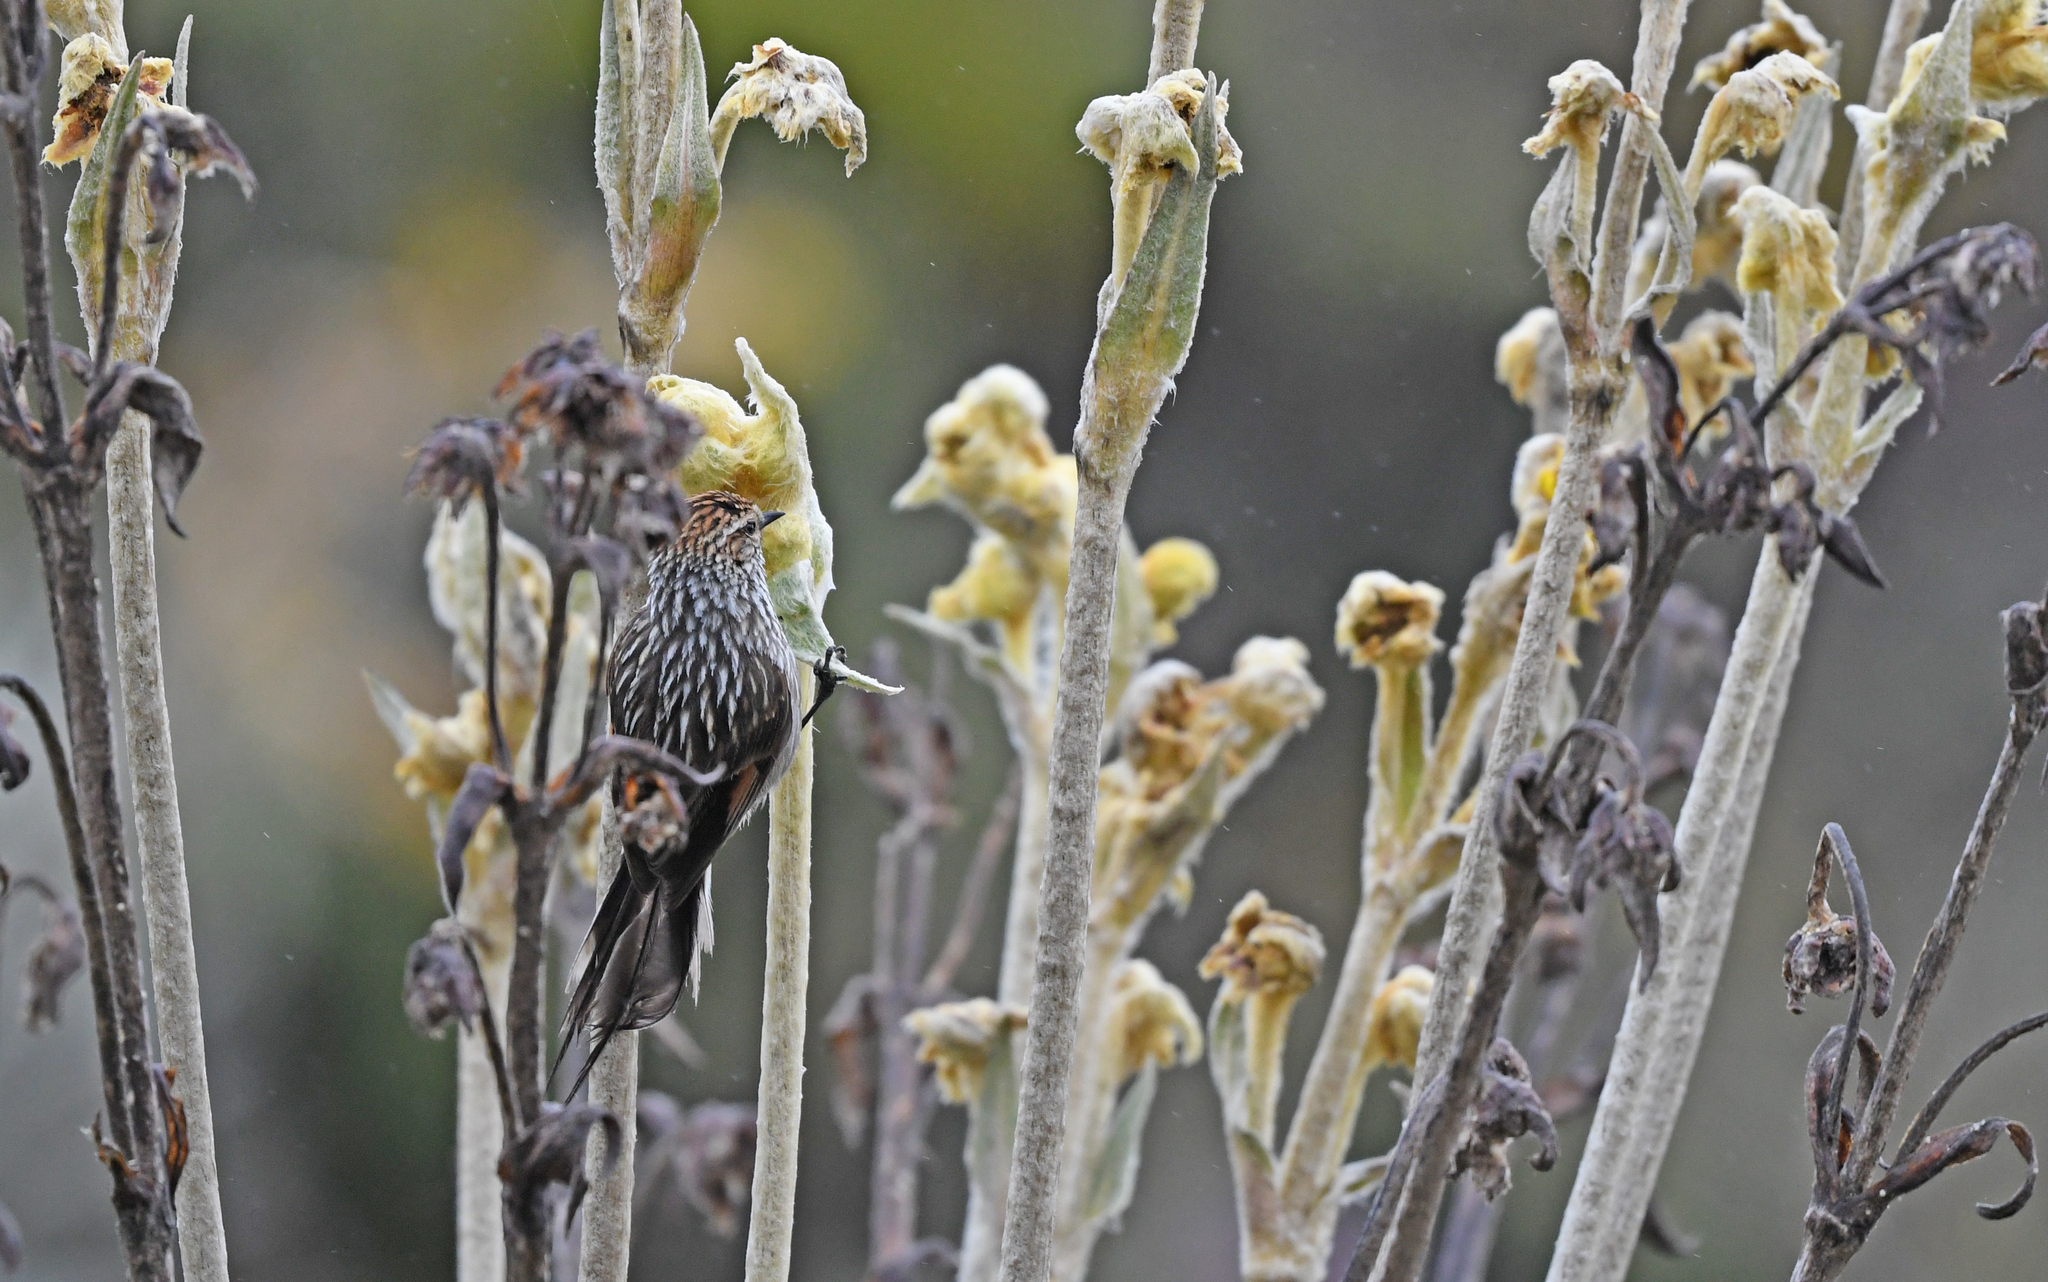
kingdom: Animalia
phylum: Chordata
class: Aves
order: Passeriformes
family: Furnariidae
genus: Asthenes
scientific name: Asthenes flammulata
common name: Many-striped canastero
